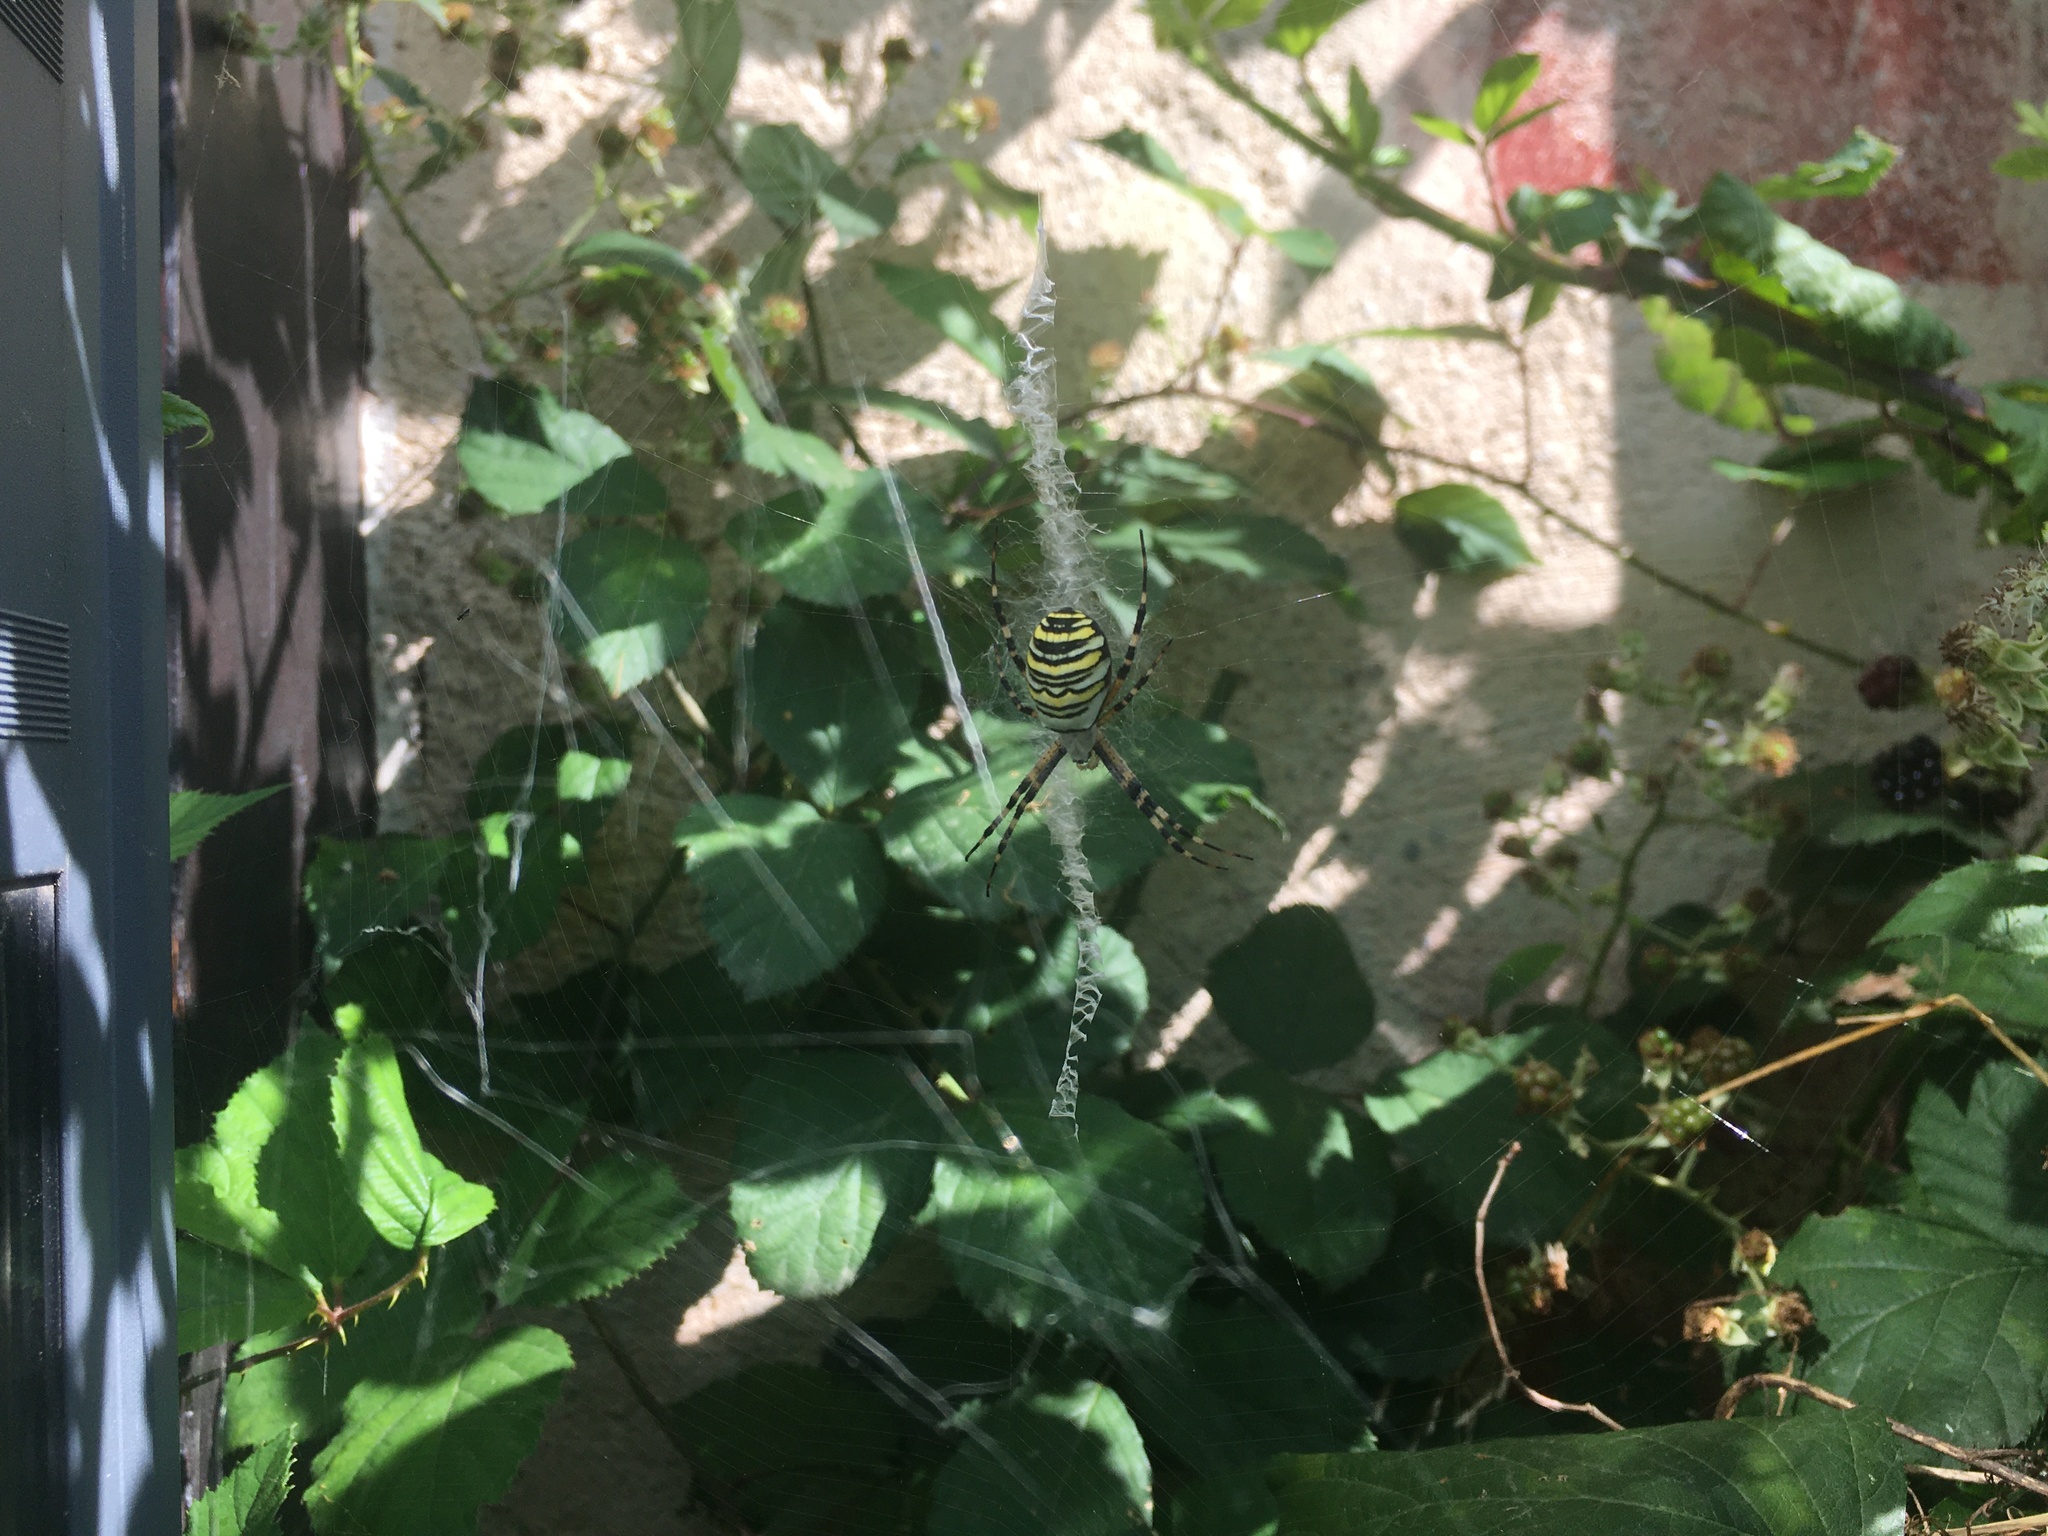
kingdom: Animalia
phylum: Arthropoda
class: Arachnida
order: Araneae
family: Araneidae
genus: Argiope
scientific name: Argiope bruennichi
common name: Wasp spider
